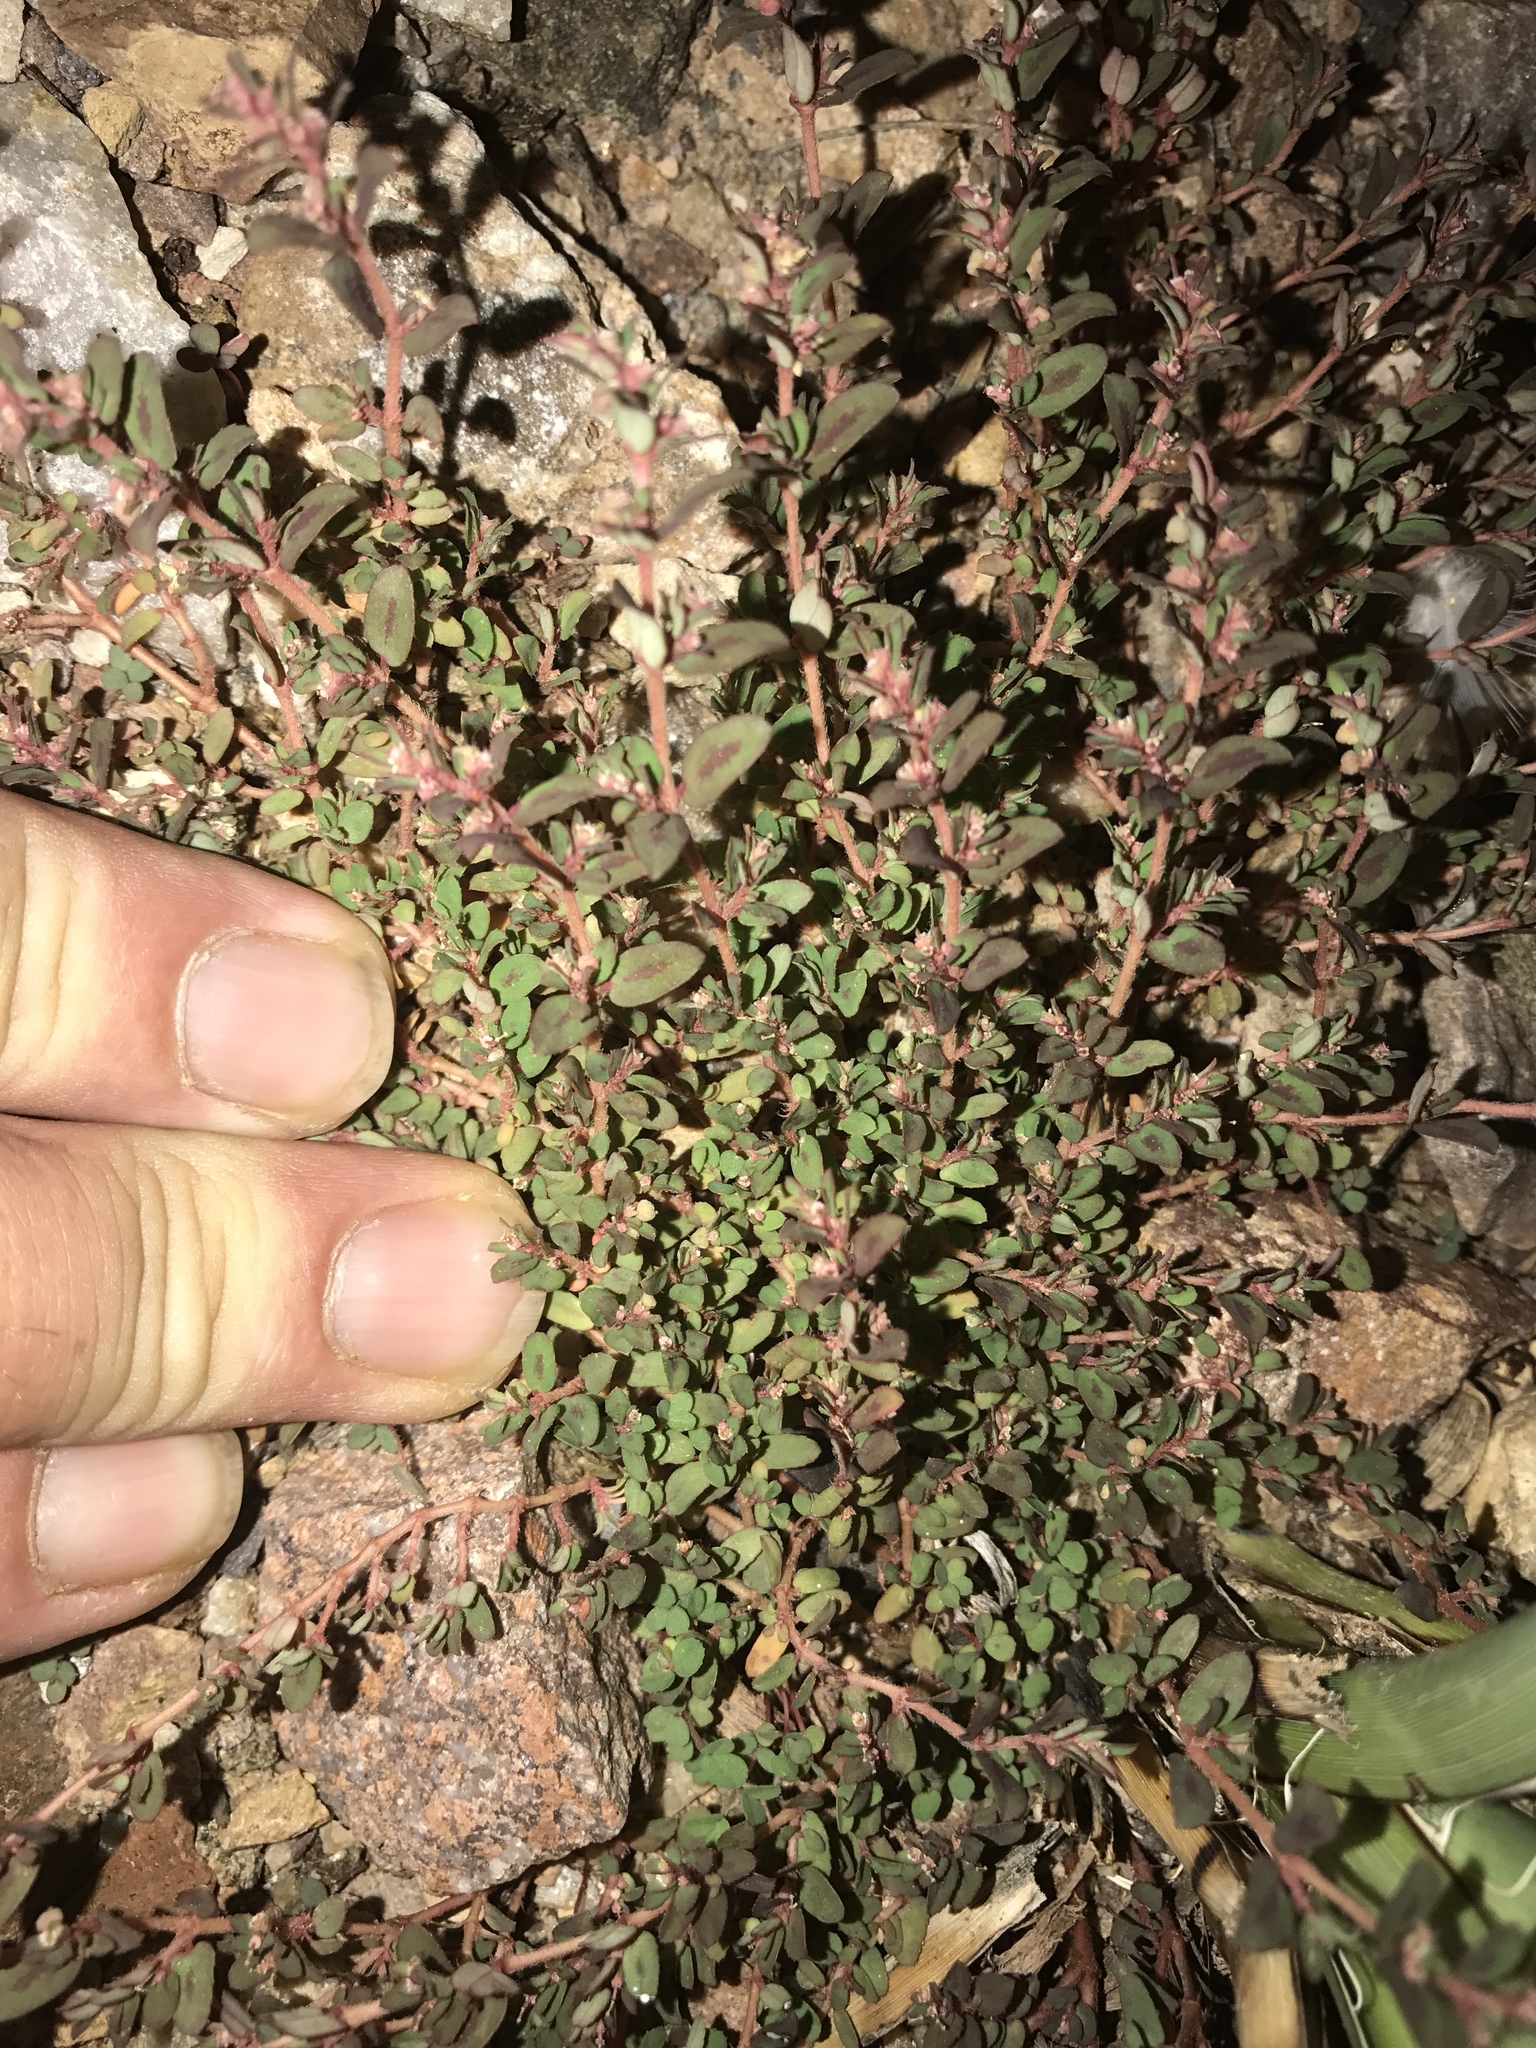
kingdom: Plantae
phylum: Tracheophyta
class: Magnoliopsida
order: Malpighiales
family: Euphorbiaceae
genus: Euphorbia
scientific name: Euphorbia maculata
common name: Spotted spurge
